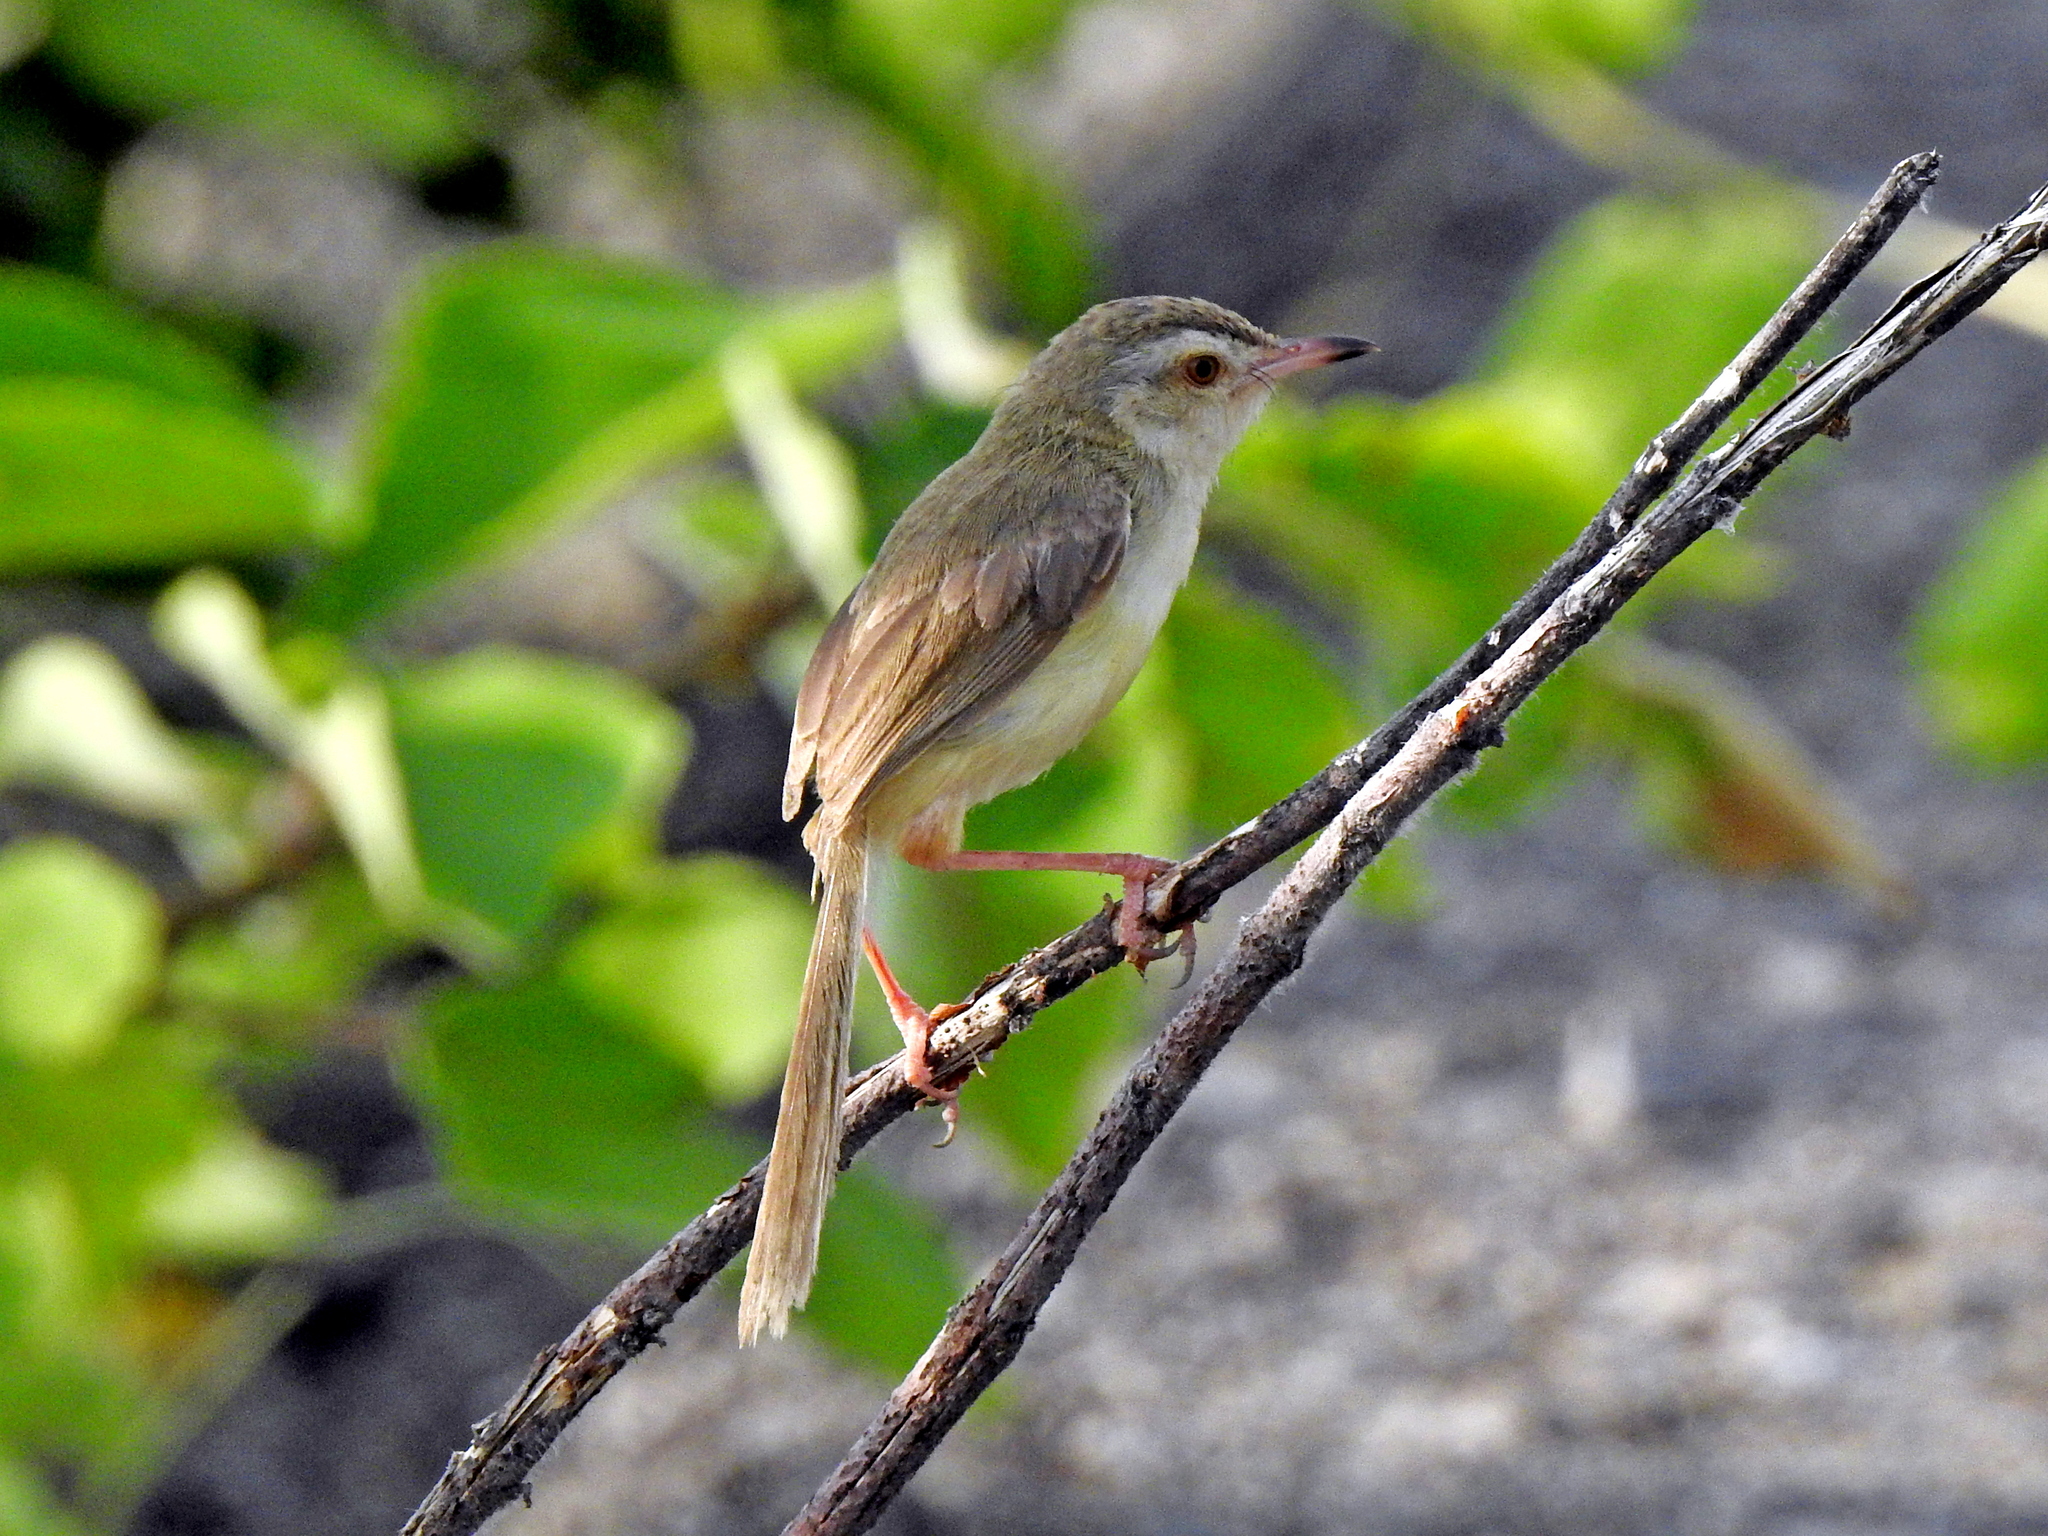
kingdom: Animalia
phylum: Chordata
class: Aves
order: Passeriformes
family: Cisticolidae
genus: Prinia
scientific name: Prinia inornata
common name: Plain prinia
